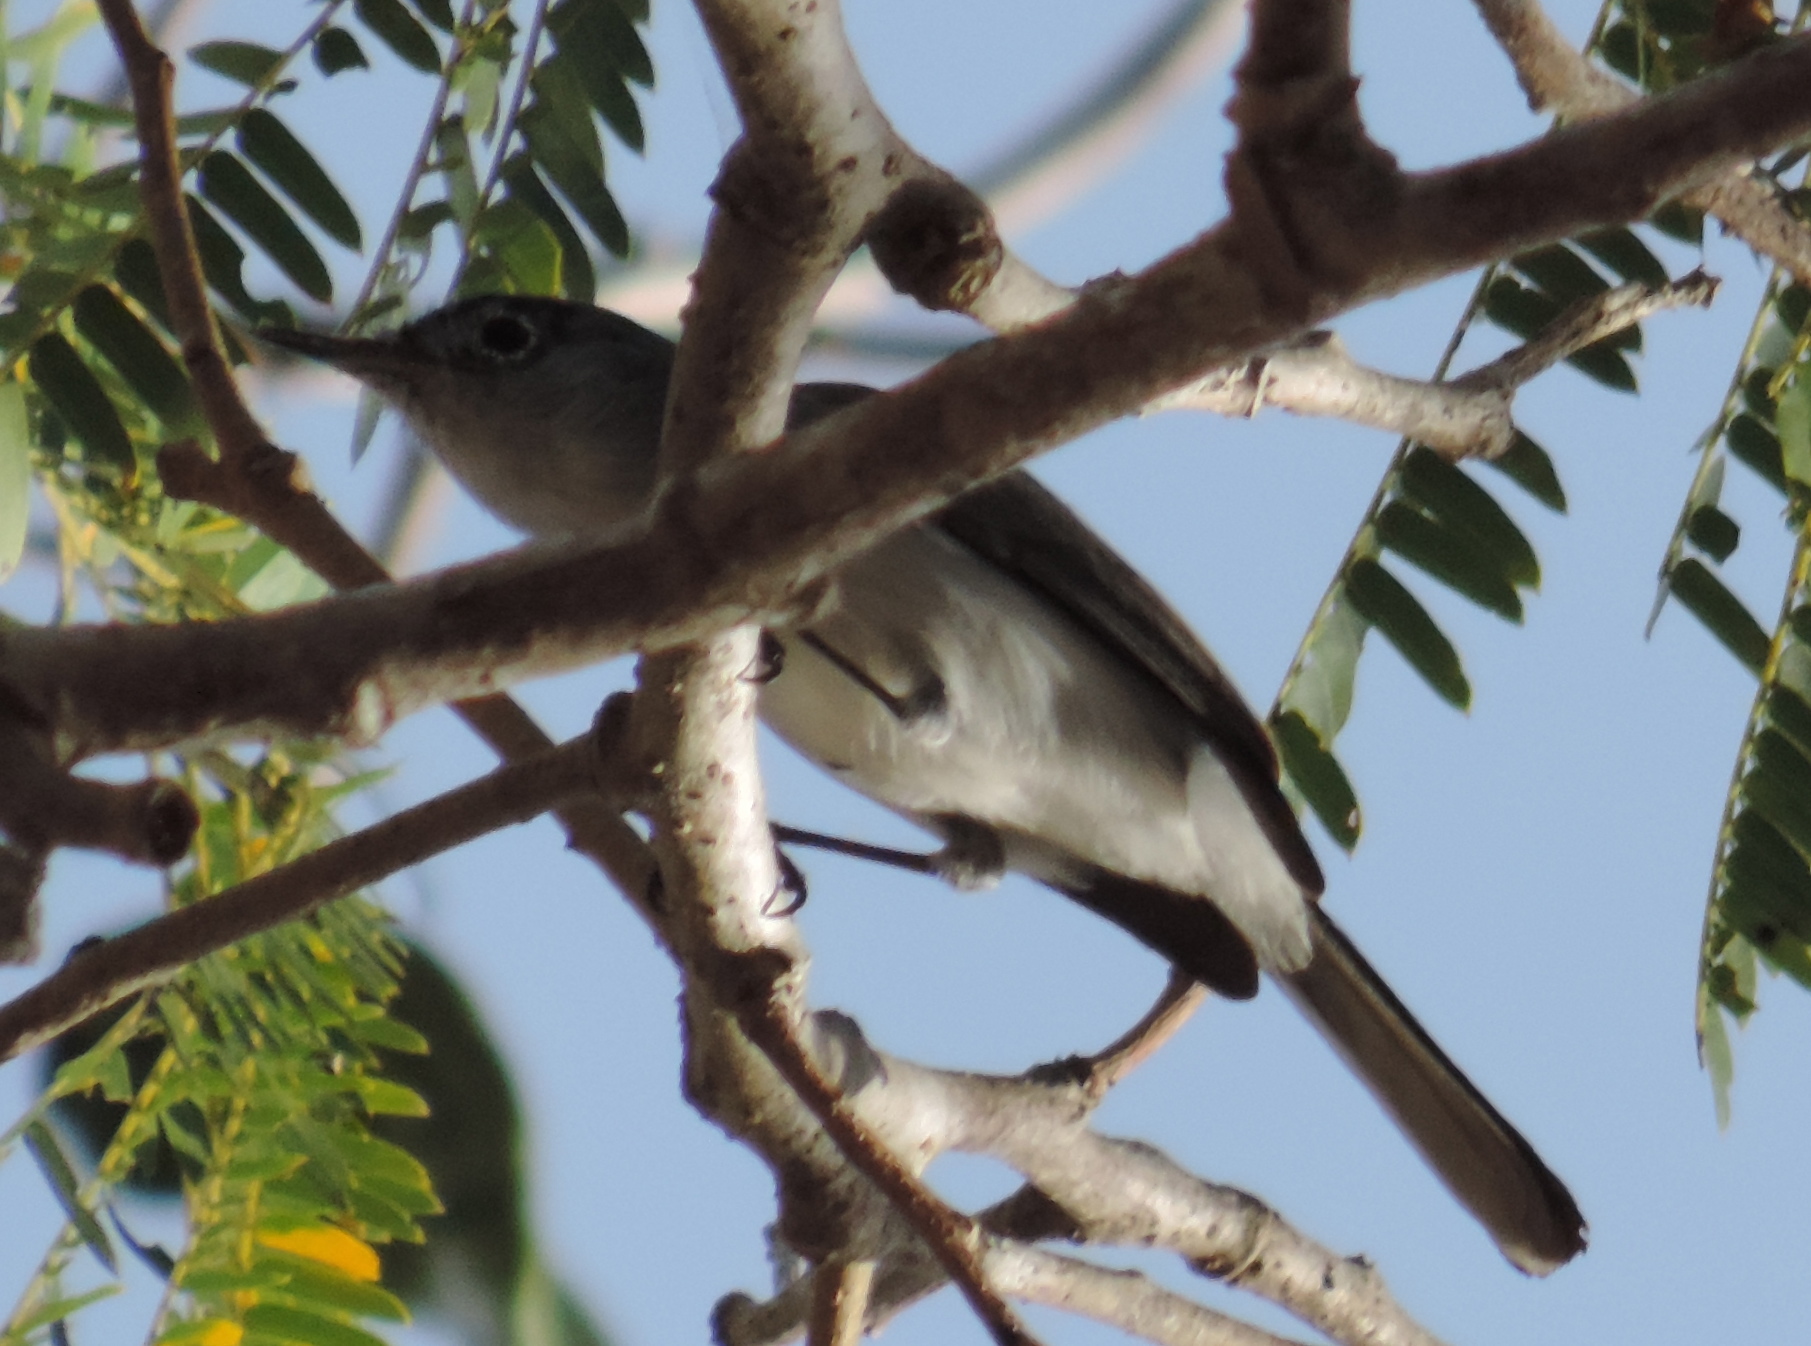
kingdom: Animalia
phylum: Chordata
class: Aves
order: Passeriformes
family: Polioptilidae
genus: Polioptila
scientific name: Polioptila caerulea
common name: Blue-gray gnatcatcher
